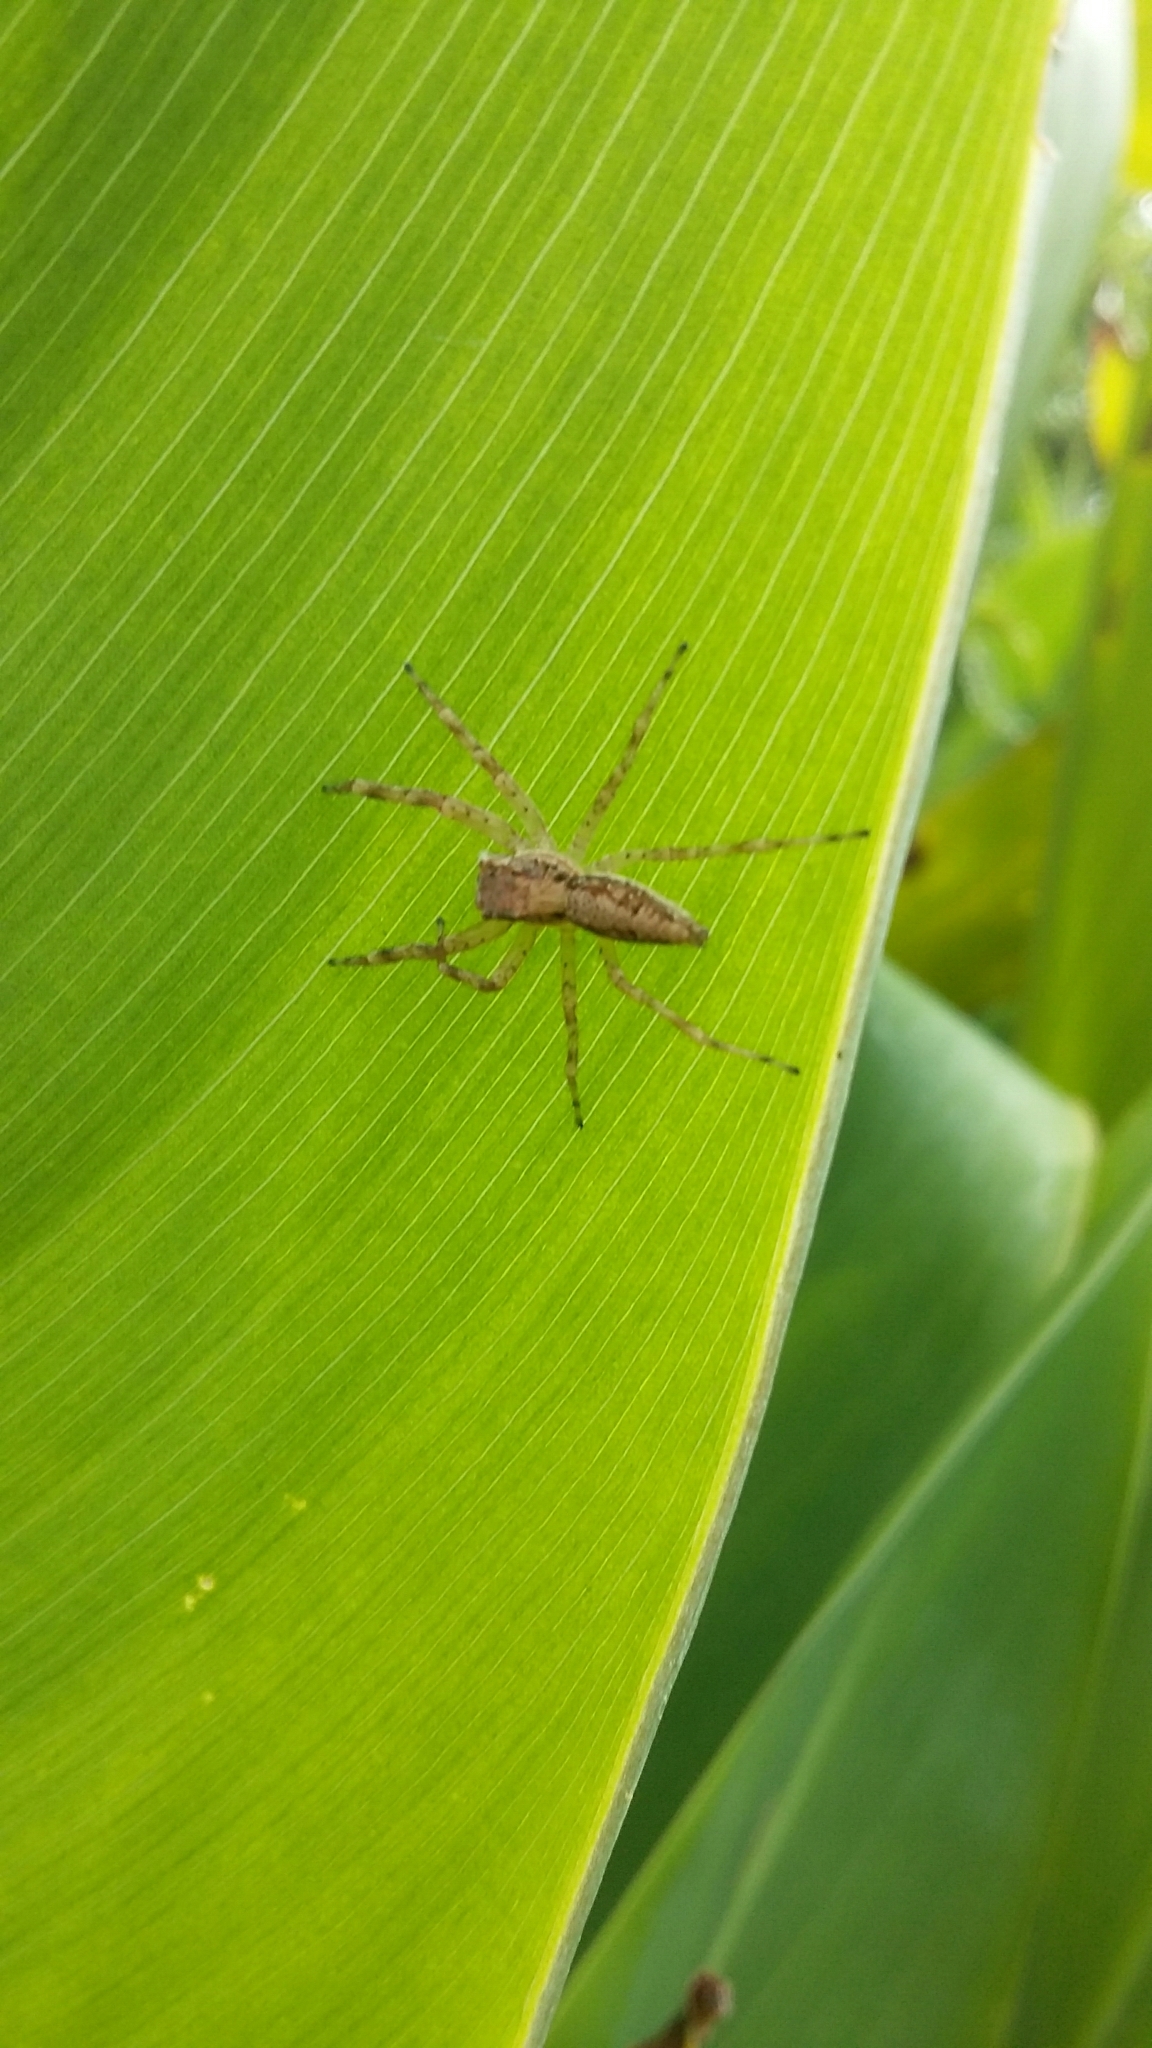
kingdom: Animalia
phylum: Arthropoda
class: Arachnida
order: Araneae
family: Salticidae
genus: Helpis
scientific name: Helpis minitabunda
